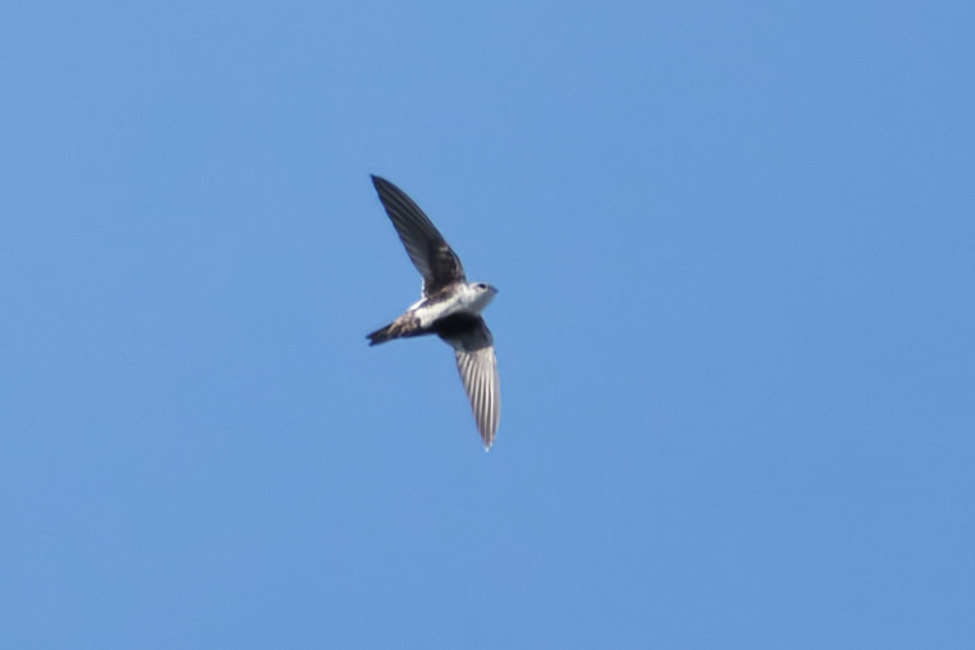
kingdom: Animalia
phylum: Chordata
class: Aves
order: Apodiformes
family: Apodidae
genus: Aeronautes
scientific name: Aeronautes saxatalis
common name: White-throated swift
